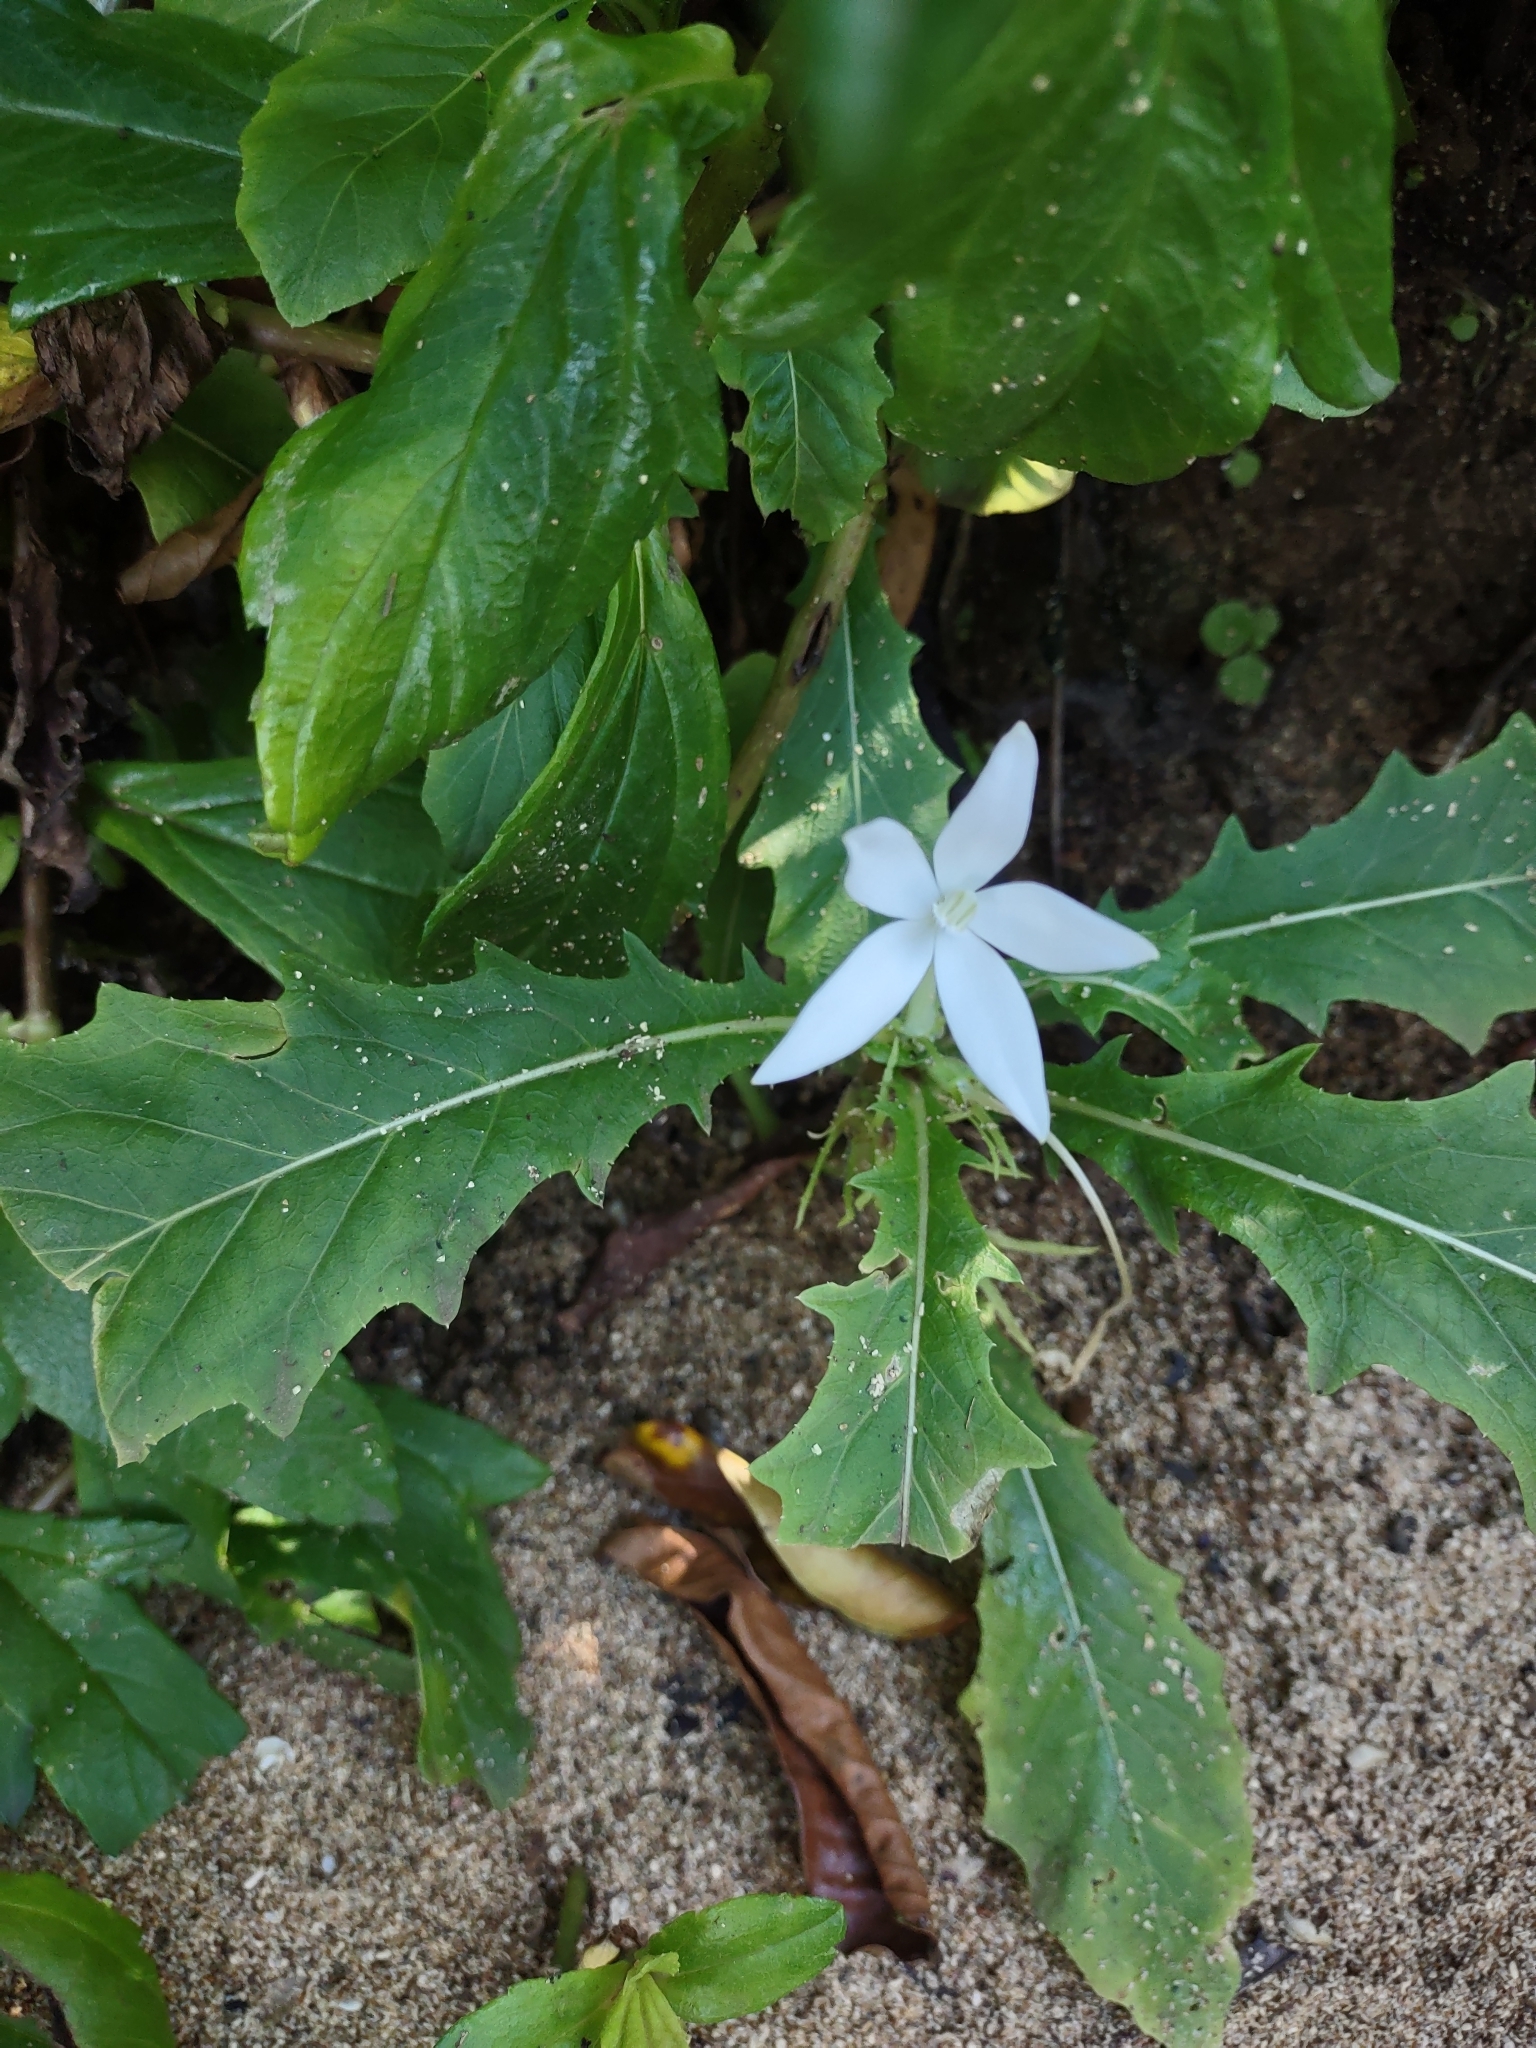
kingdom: Plantae
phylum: Tracheophyta
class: Magnoliopsida
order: Asterales
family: Campanulaceae
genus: Hippobroma
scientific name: Hippobroma longiflora
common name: Madamfate
